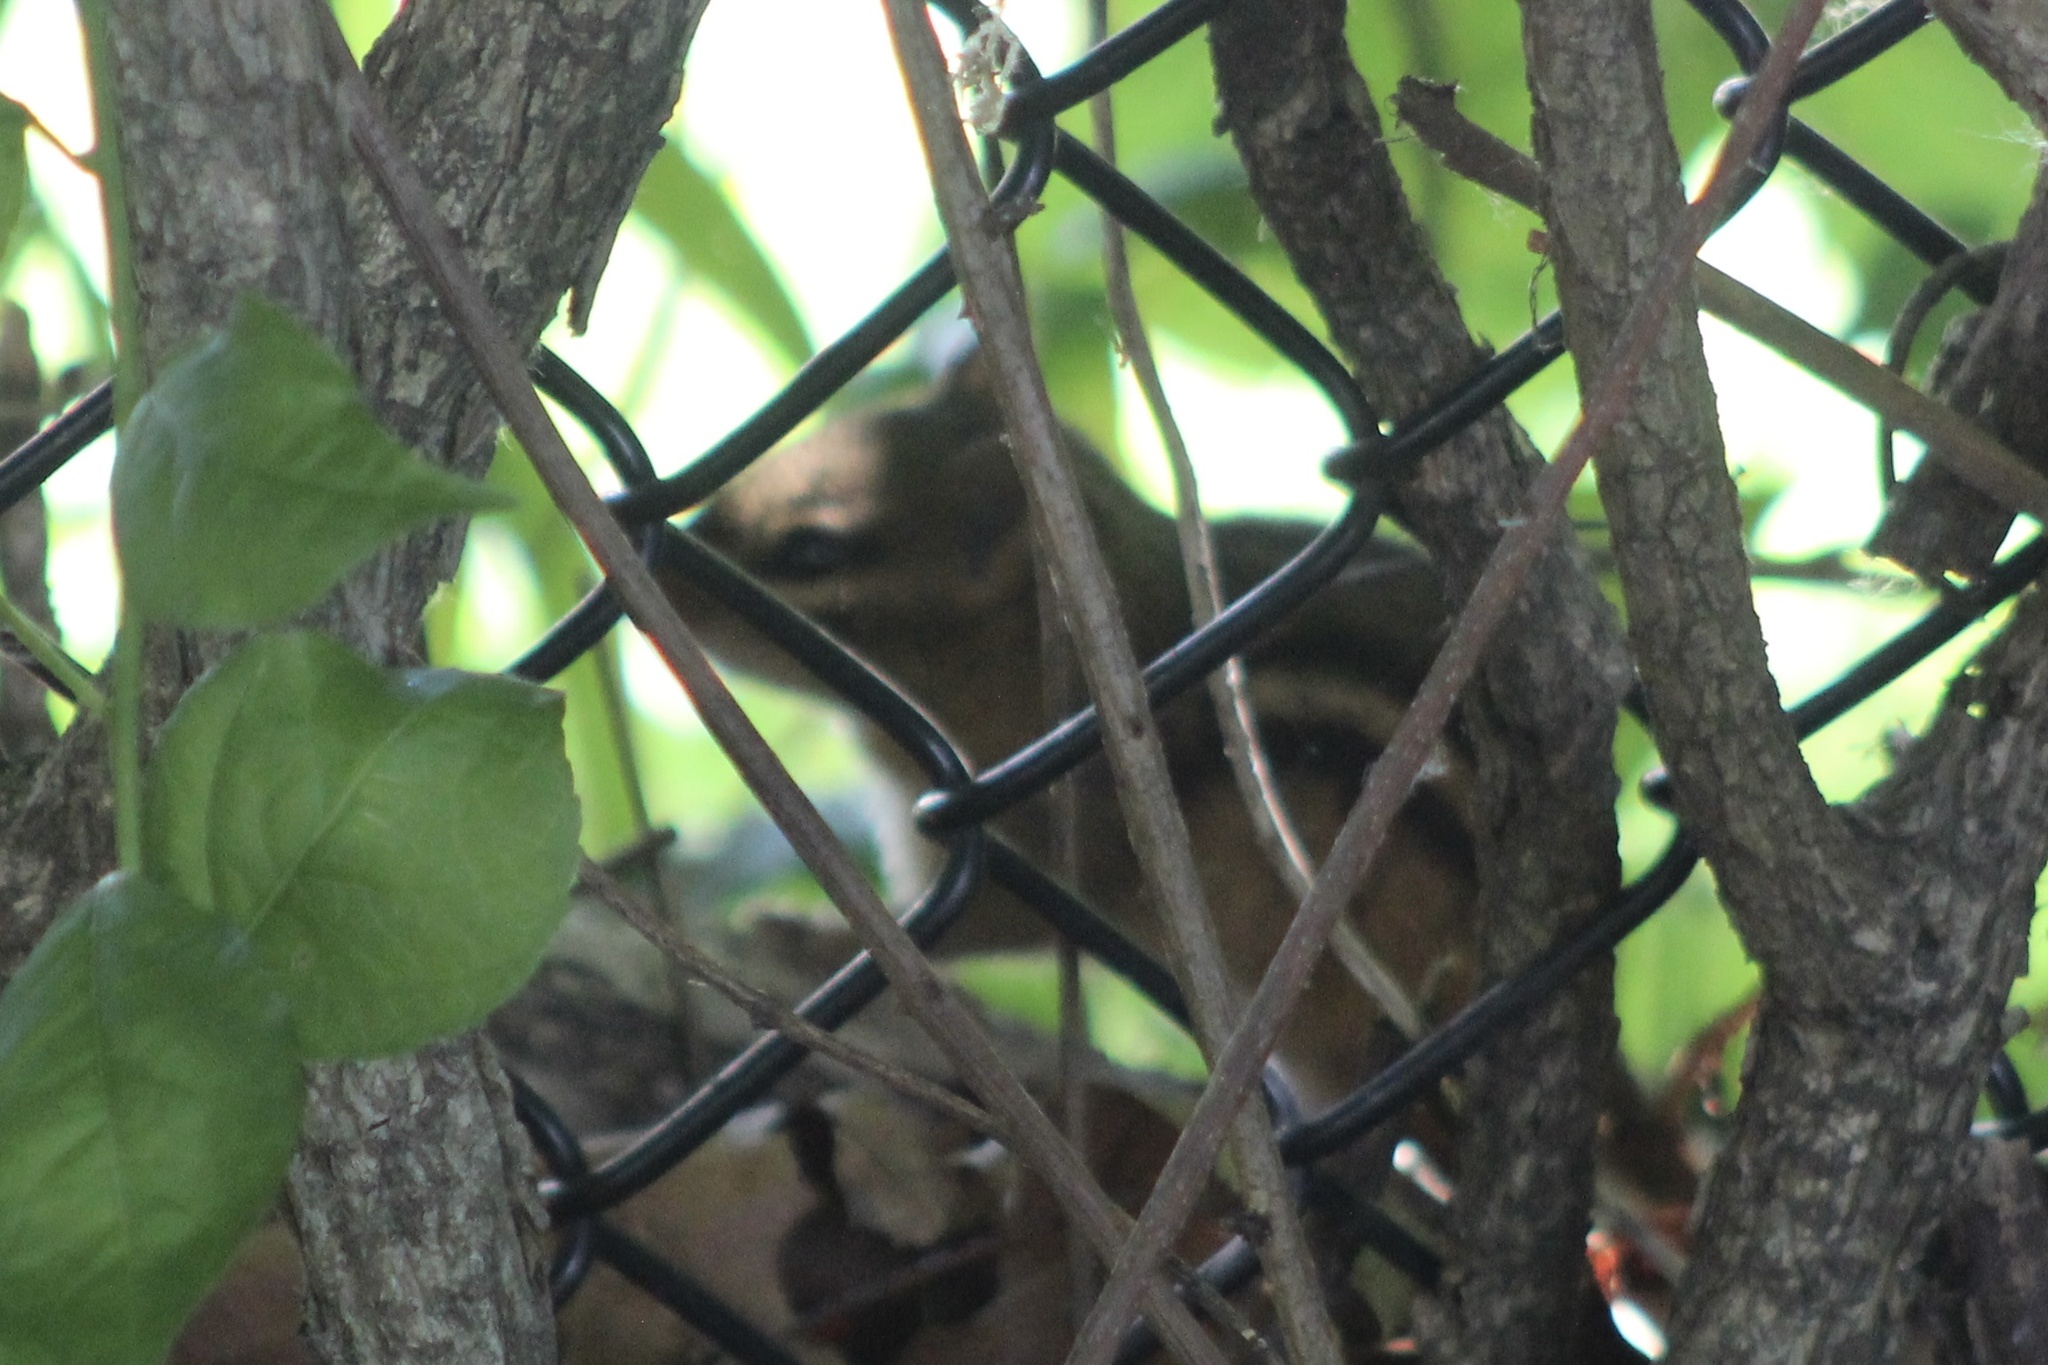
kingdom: Animalia
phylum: Chordata
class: Mammalia
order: Rodentia
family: Sciuridae
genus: Tamias
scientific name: Tamias striatus
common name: Eastern chipmunk
